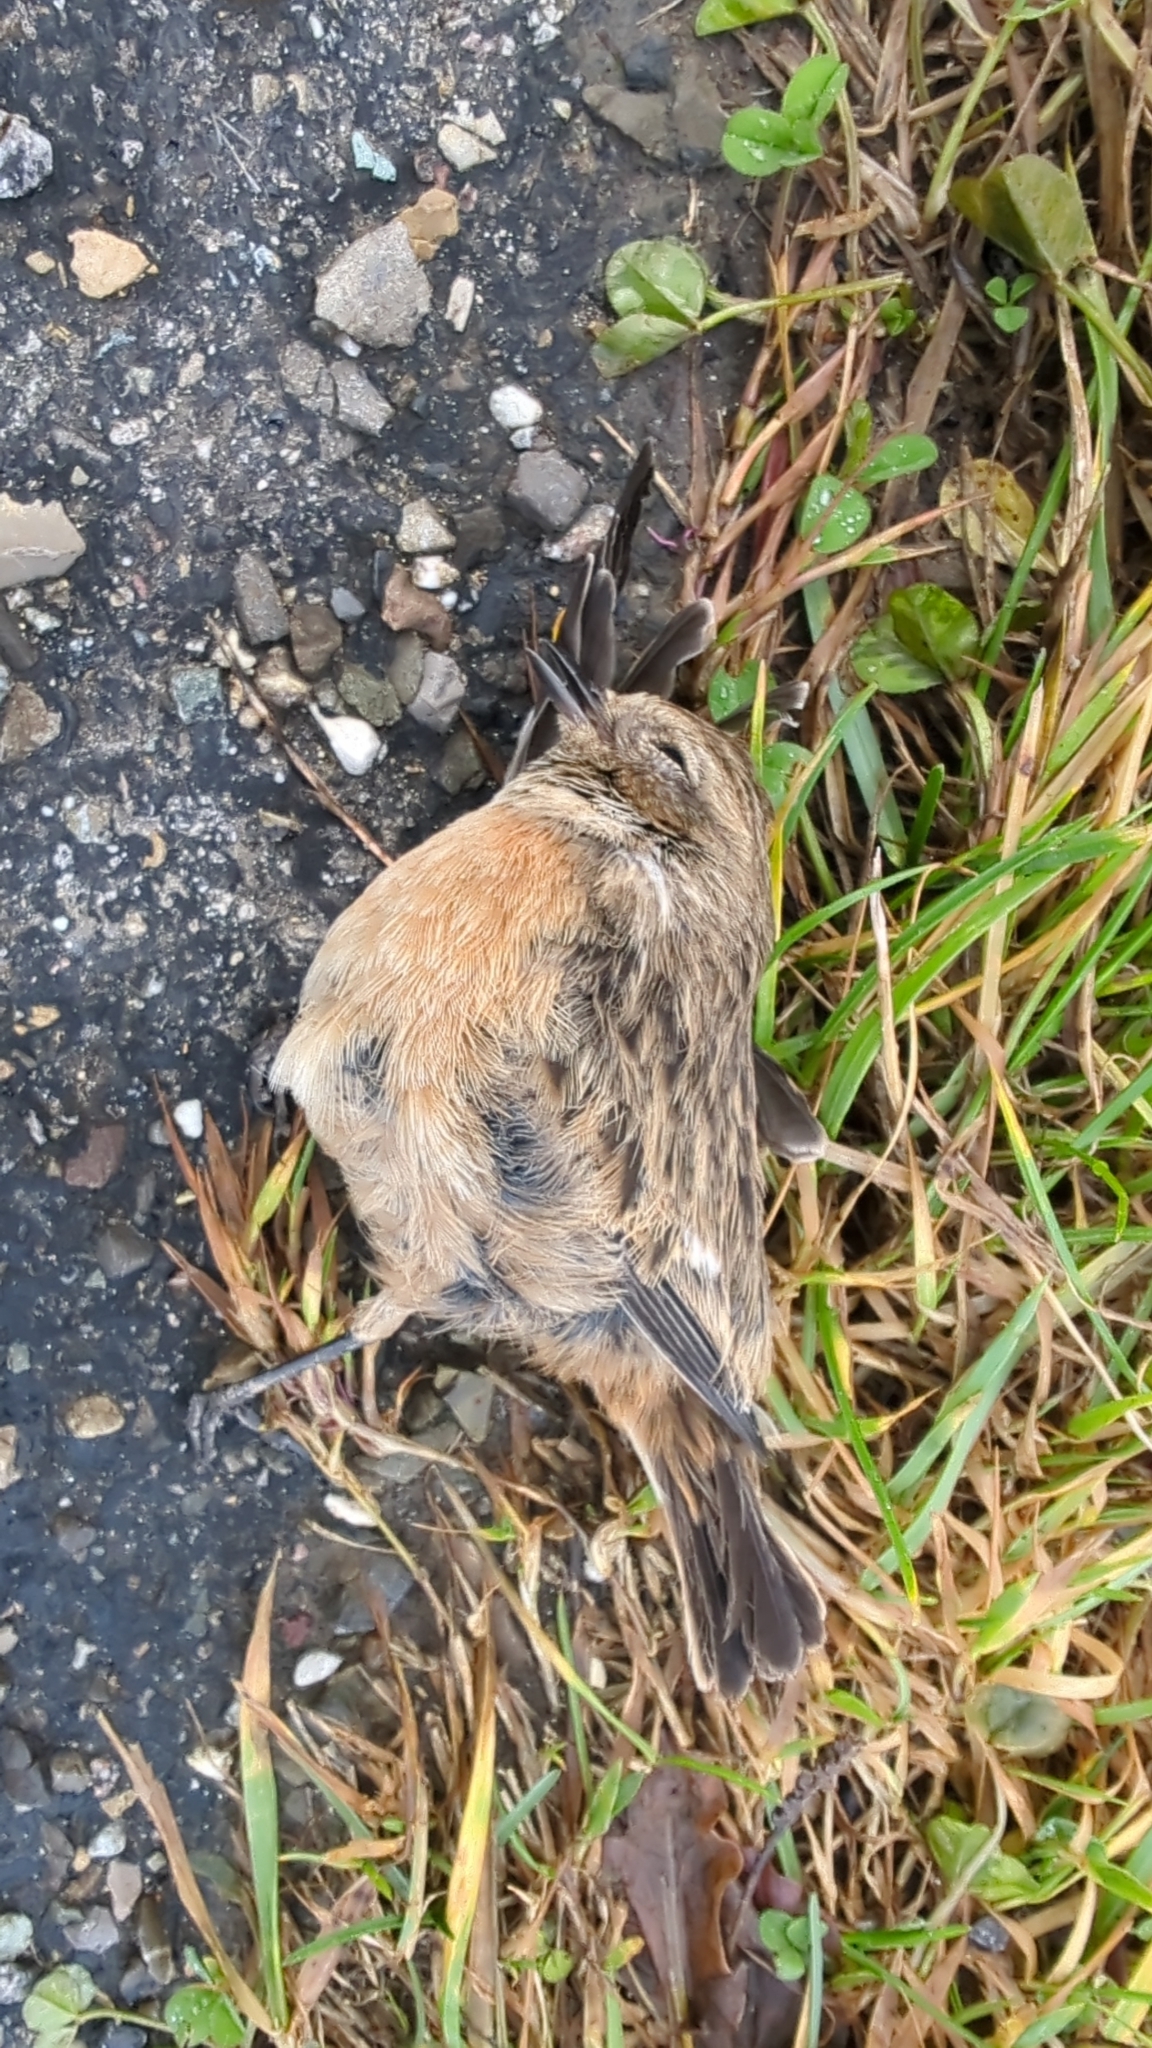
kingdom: Animalia
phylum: Chordata
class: Aves
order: Passeriformes
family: Muscicapidae
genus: Saxicola
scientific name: Saxicola rubicola
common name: European stonechat
